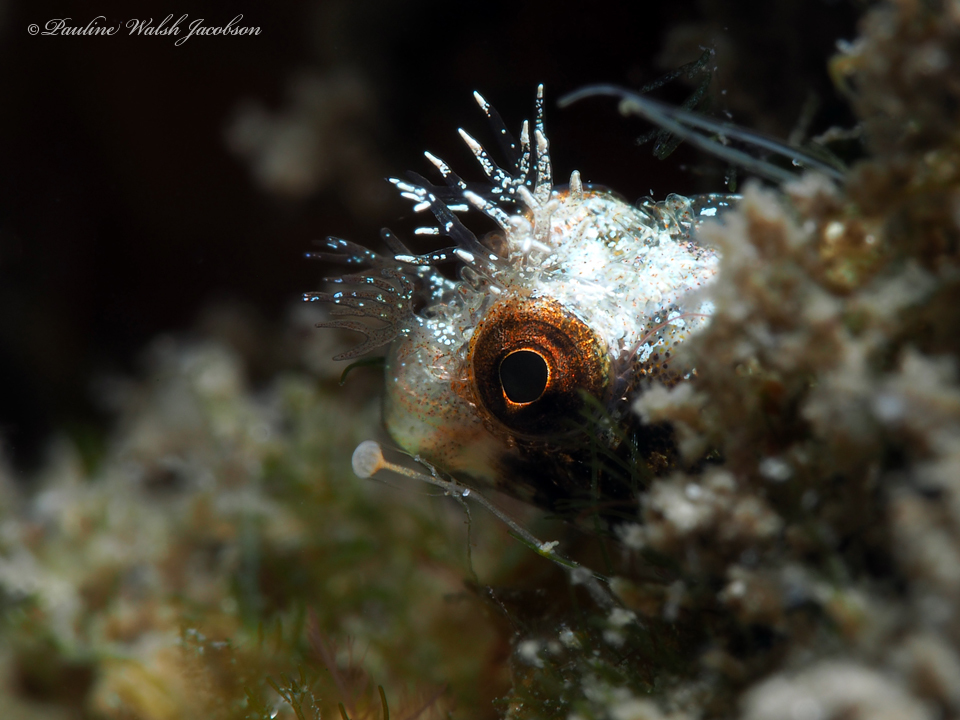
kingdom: Animalia
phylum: Chordata
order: Perciformes
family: Chaenopsidae
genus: Acanthemblemaria
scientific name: Acanthemblemaria aspera
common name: Roughhead blenny
